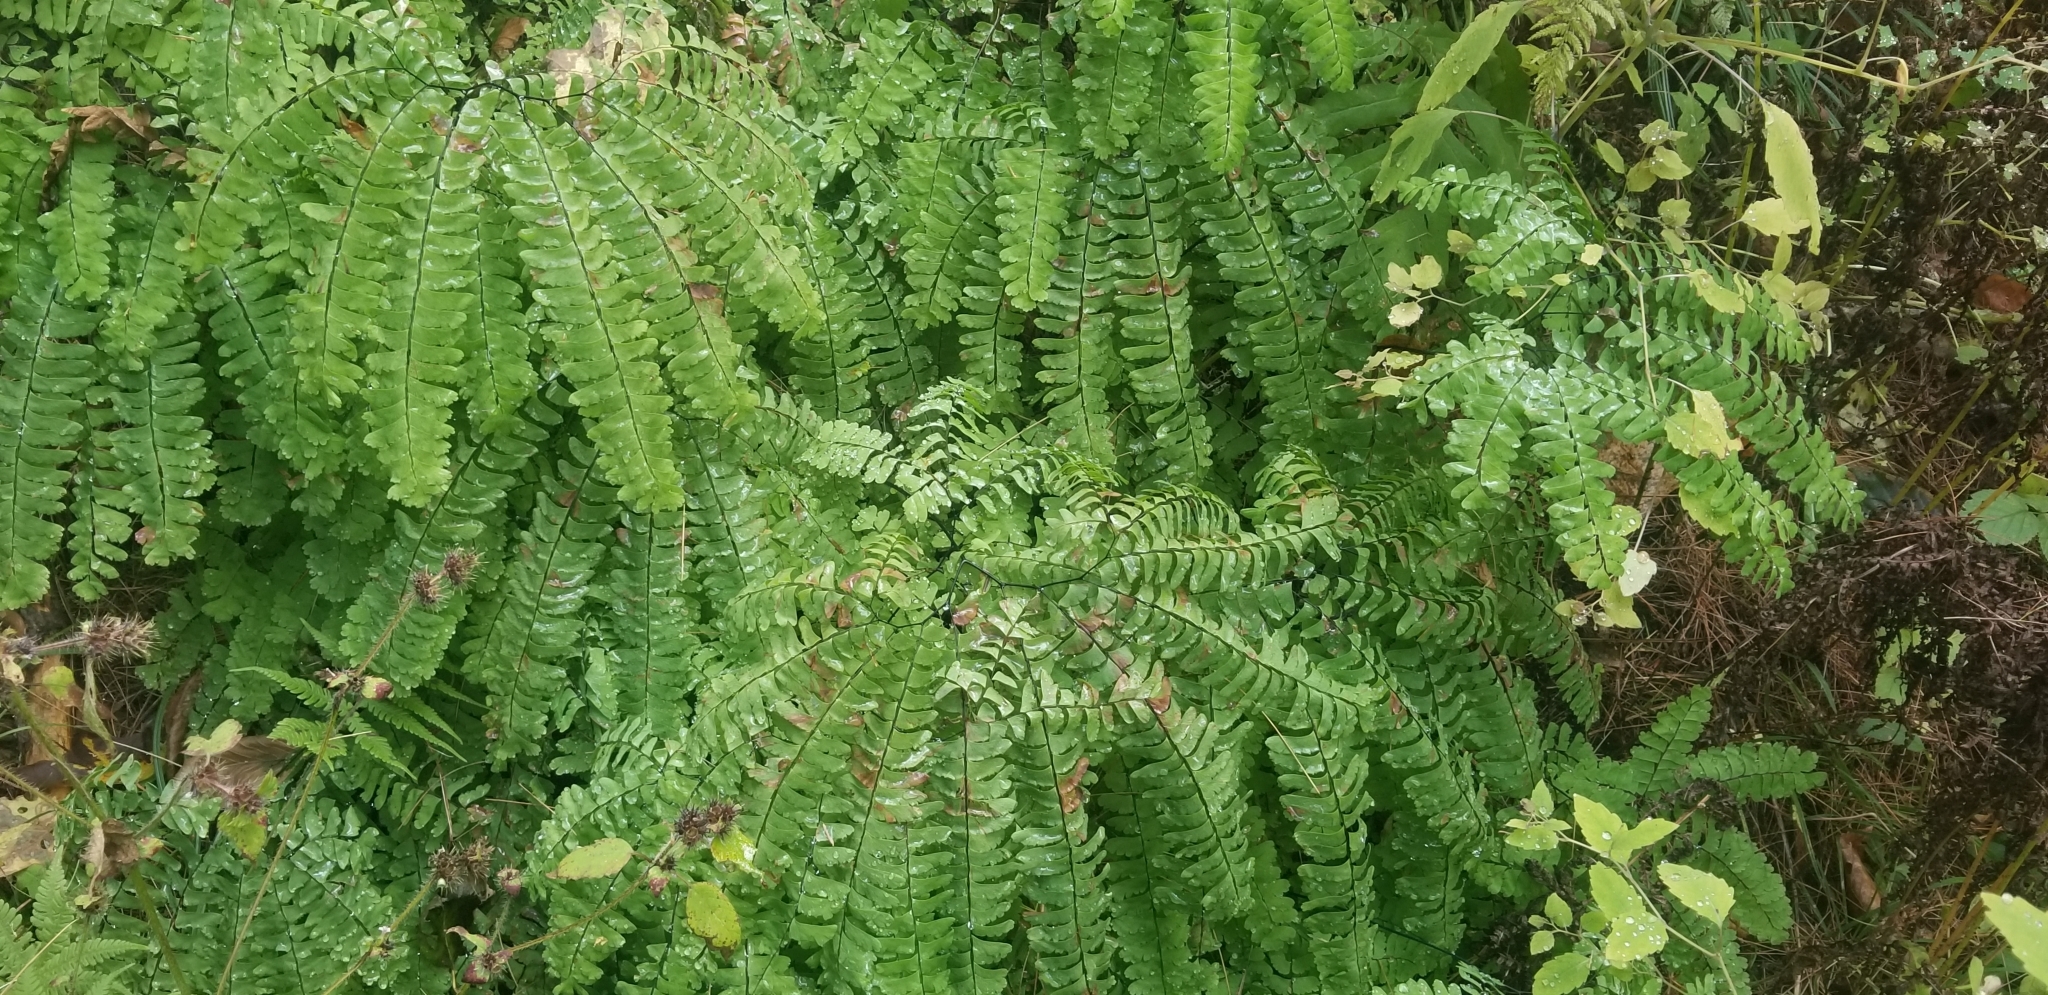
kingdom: Plantae
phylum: Tracheophyta
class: Polypodiopsida
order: Polypodiales
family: Pteridaceae
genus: Adiantum
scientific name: Adiantum pedatum
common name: Five-finger fern
